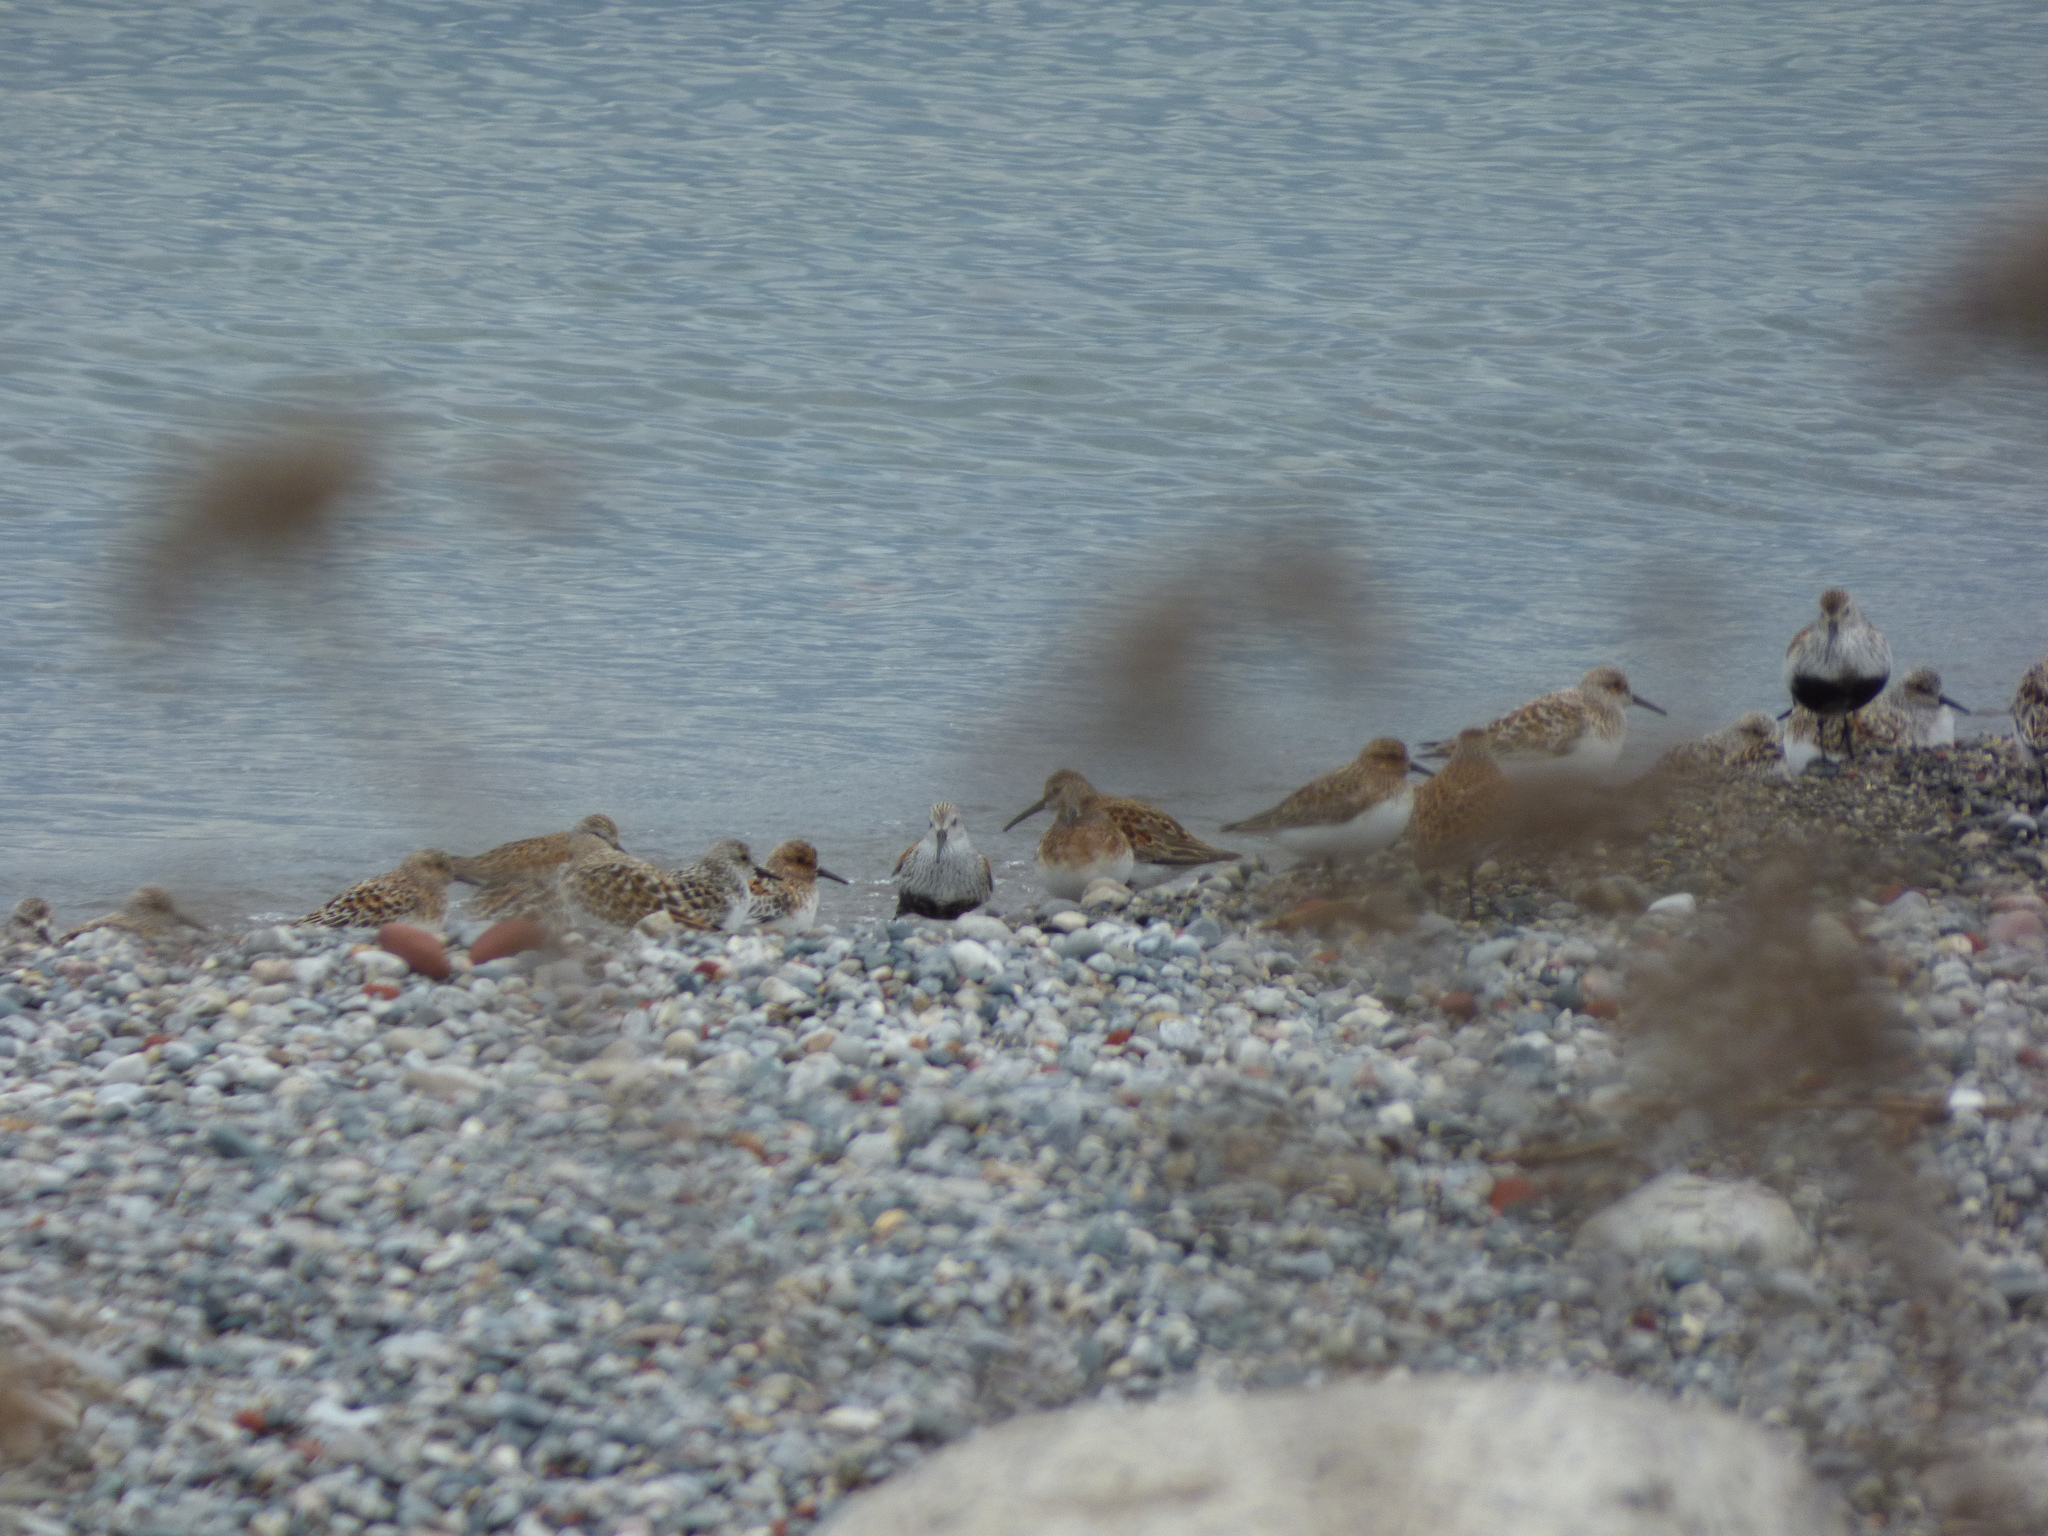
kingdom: Animalia
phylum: Chordata
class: Aves
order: Charadriiformes
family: Scolopacidae
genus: Calidris
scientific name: Calidris alpina
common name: Dunlin
